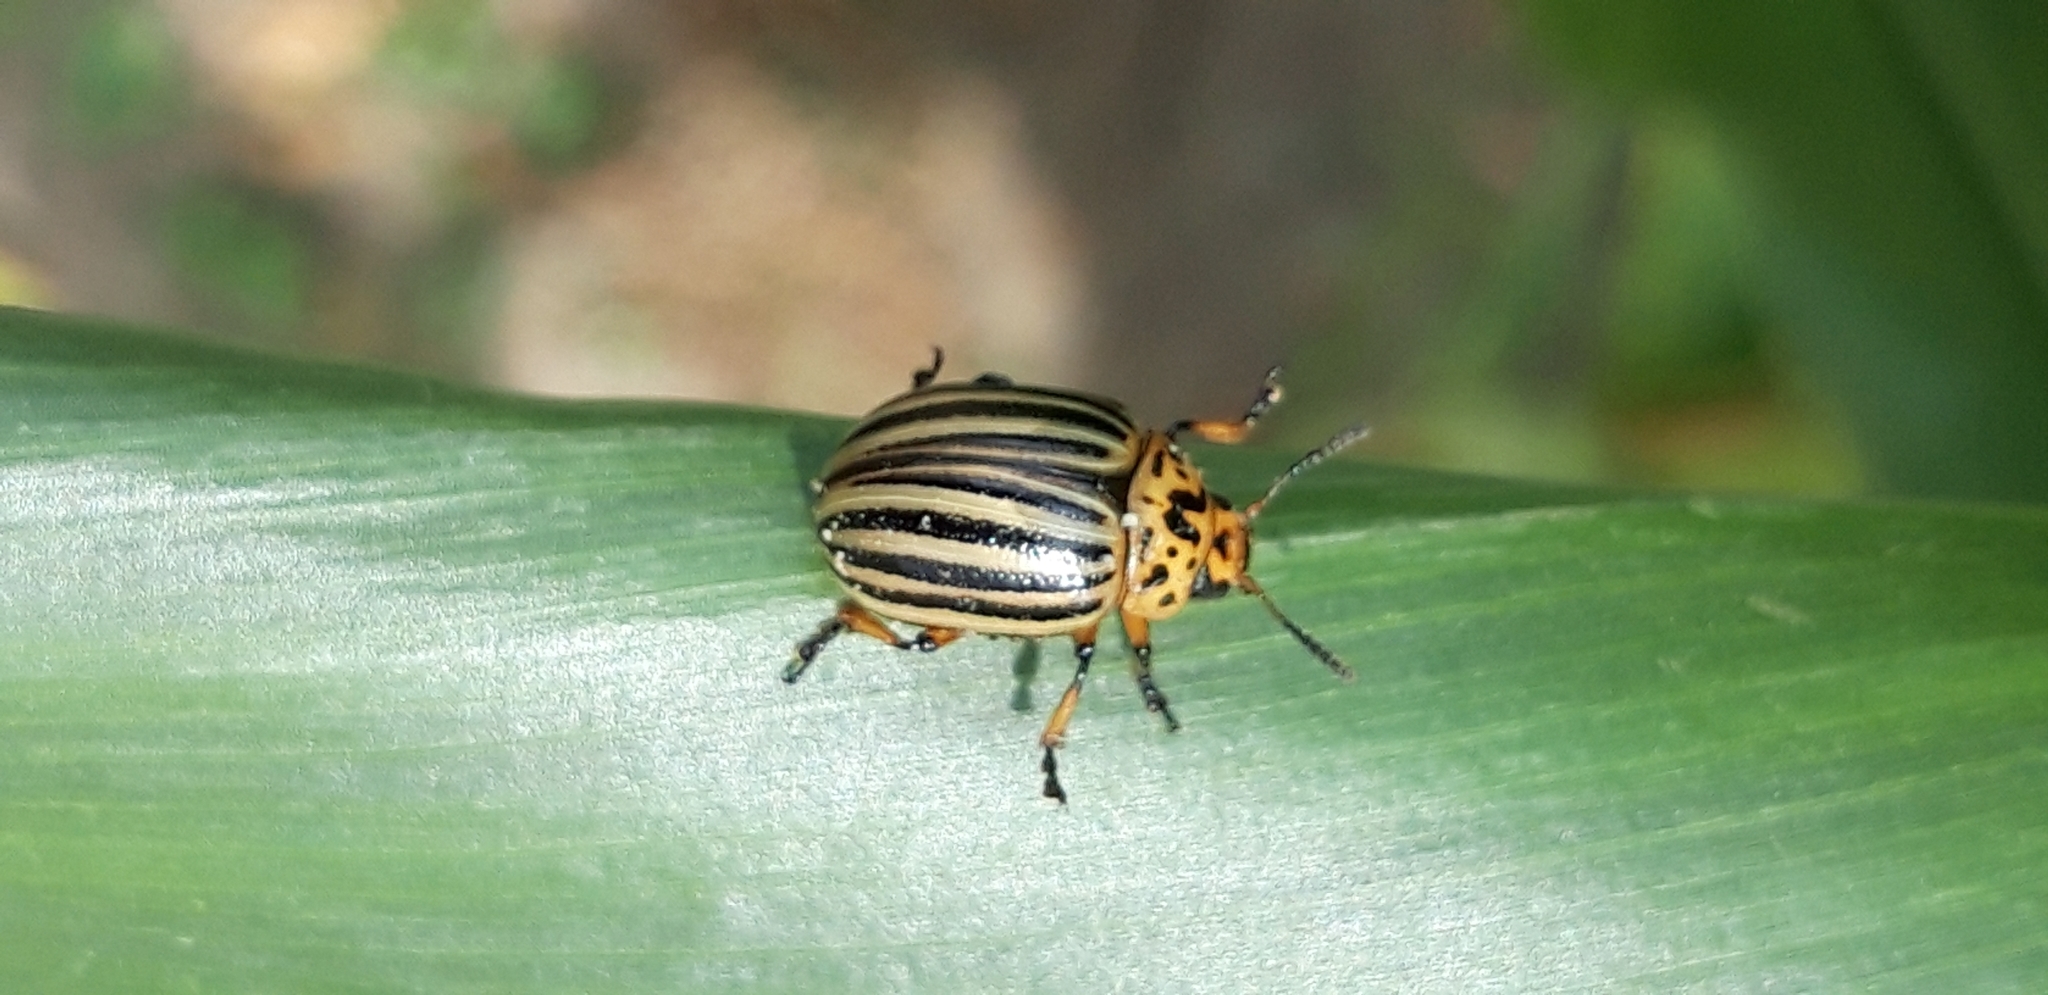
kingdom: Animalia
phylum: Arthropoda
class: Insecta
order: Coleoptera
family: Chrysomelidae
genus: Leptinotarsa
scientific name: Leptinotarsa decemlineata
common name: Colorado potato beetle
